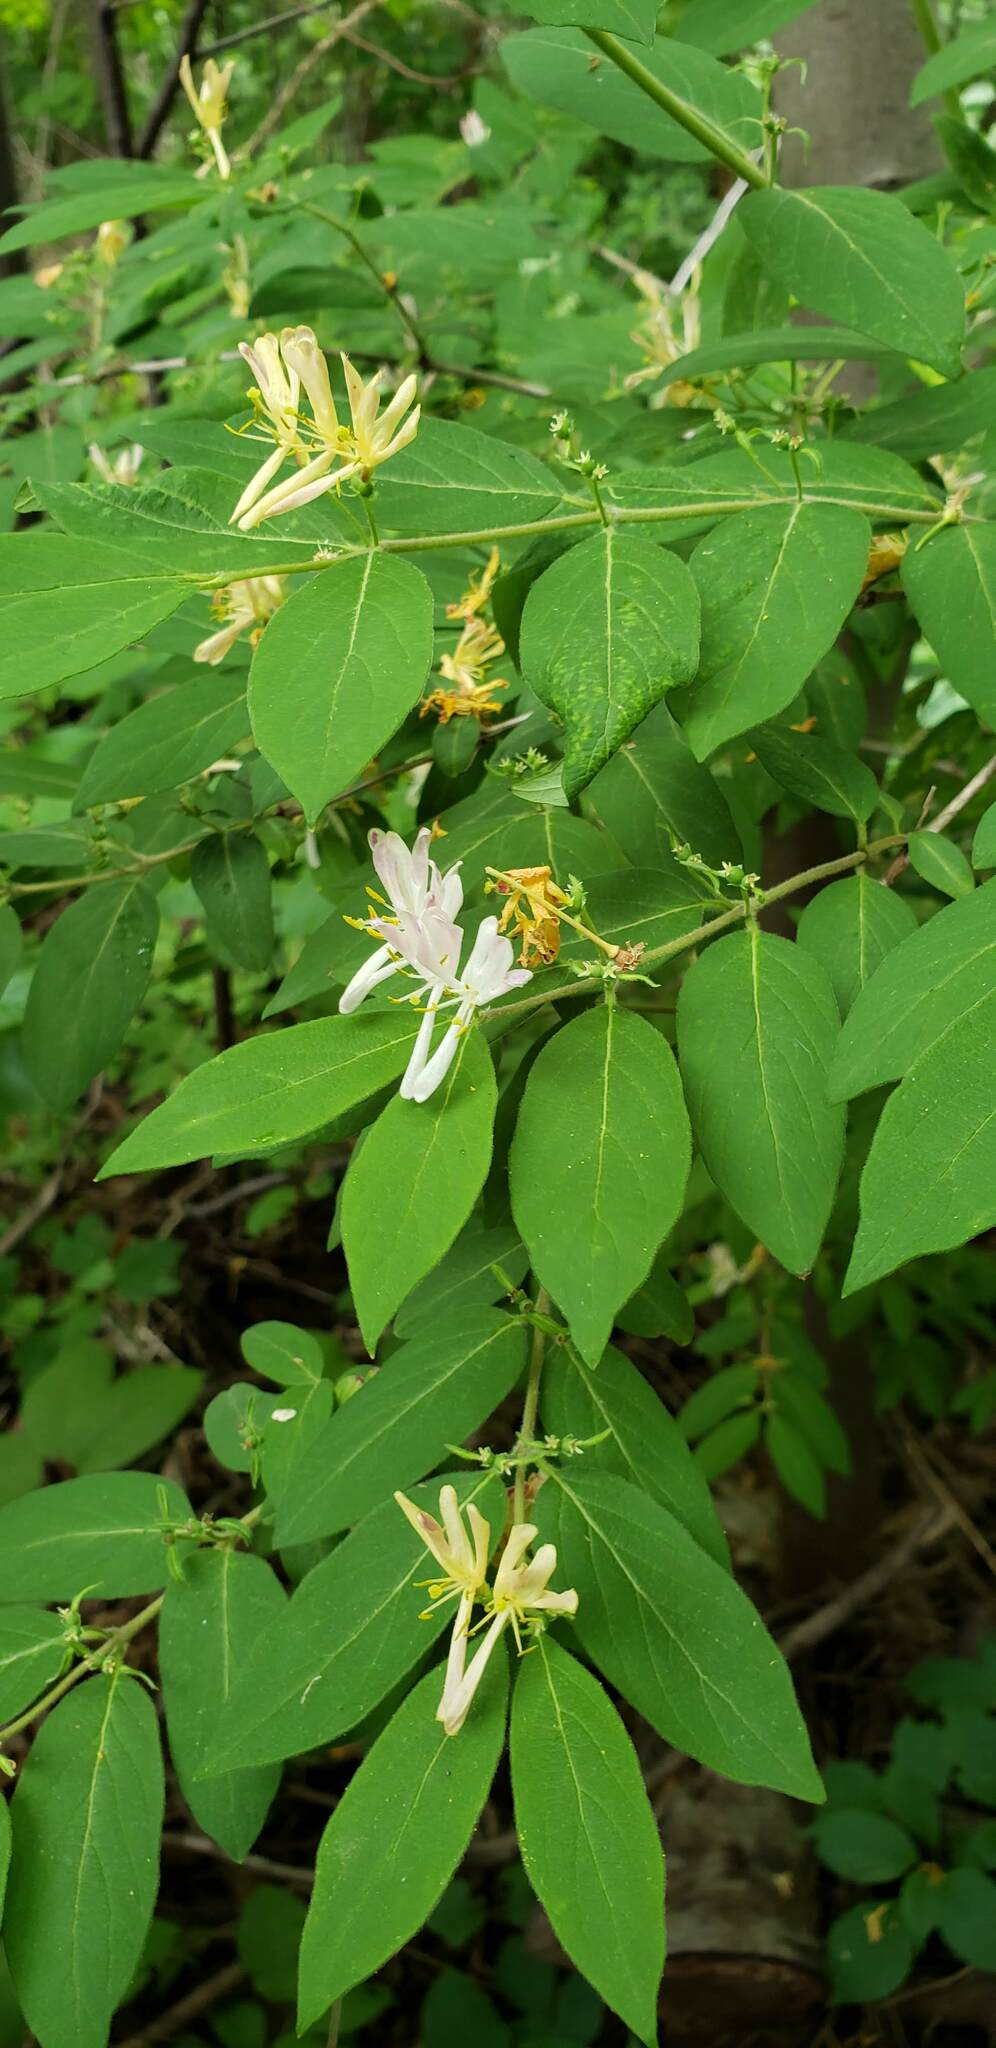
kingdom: Plantae
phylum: Tracheophyta
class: Magnoliopsida
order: Dipsacales
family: Caprifoliaceae
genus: Lonicera
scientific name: Lonicera morrowii
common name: Morrow's honeysuckle
